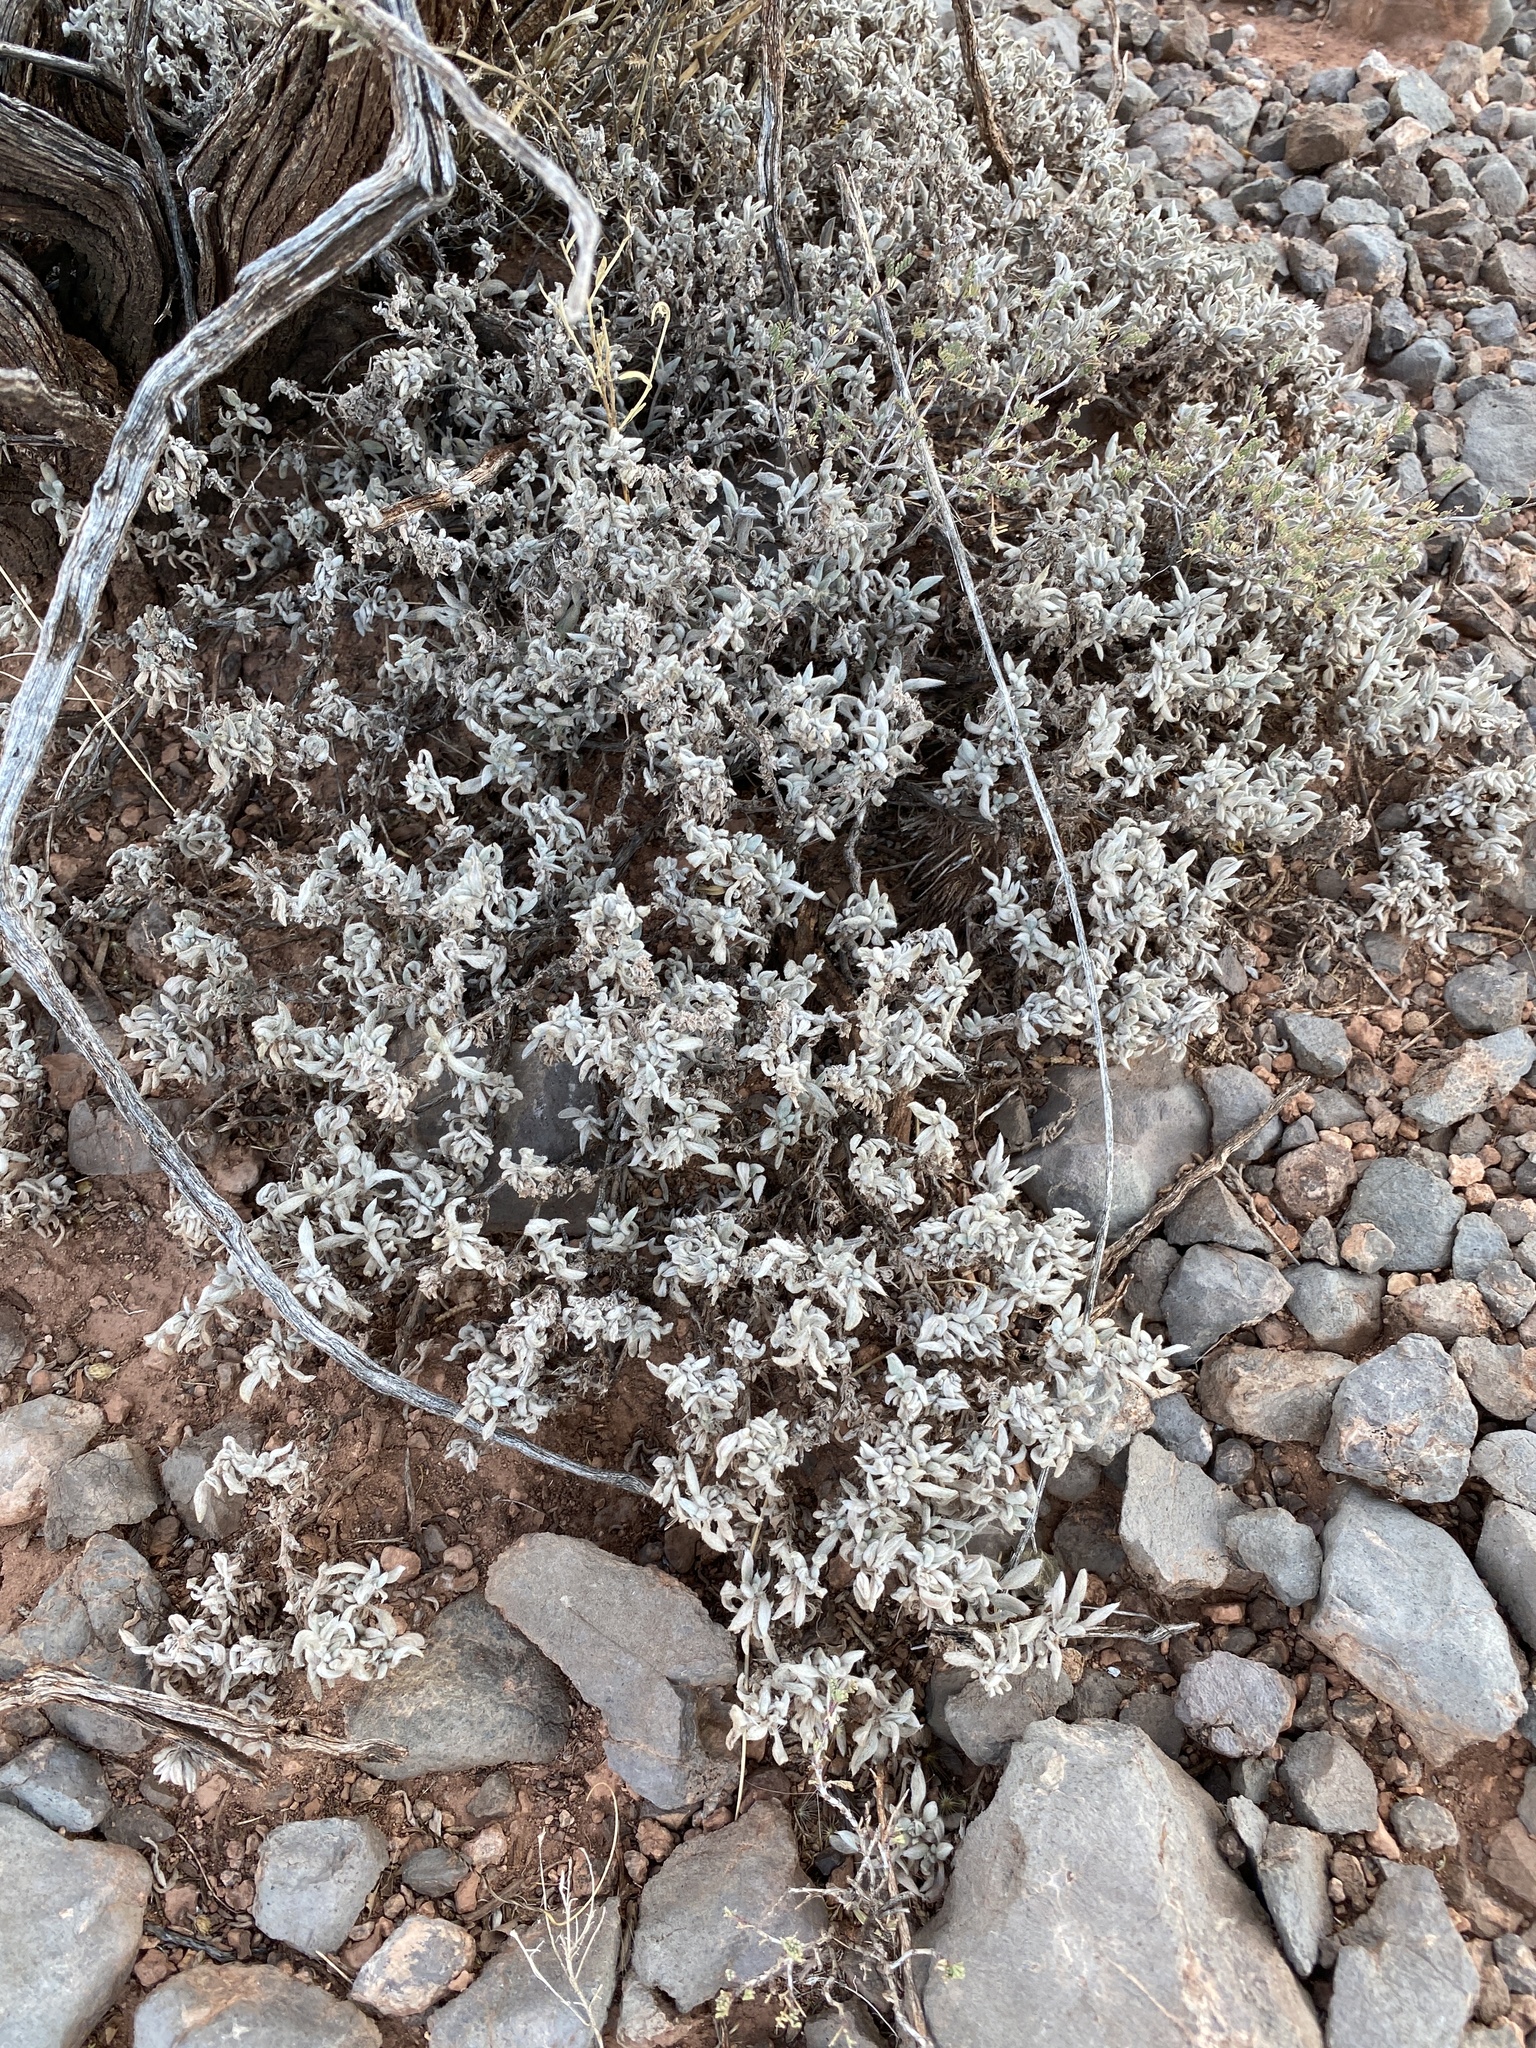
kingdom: Plantae
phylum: Tracheophyta
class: Magnoliopsida
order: Boraginales
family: Ehretiaceae
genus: Tiquilia
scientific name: Tiquilia canescens
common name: Hairy tiquilia
